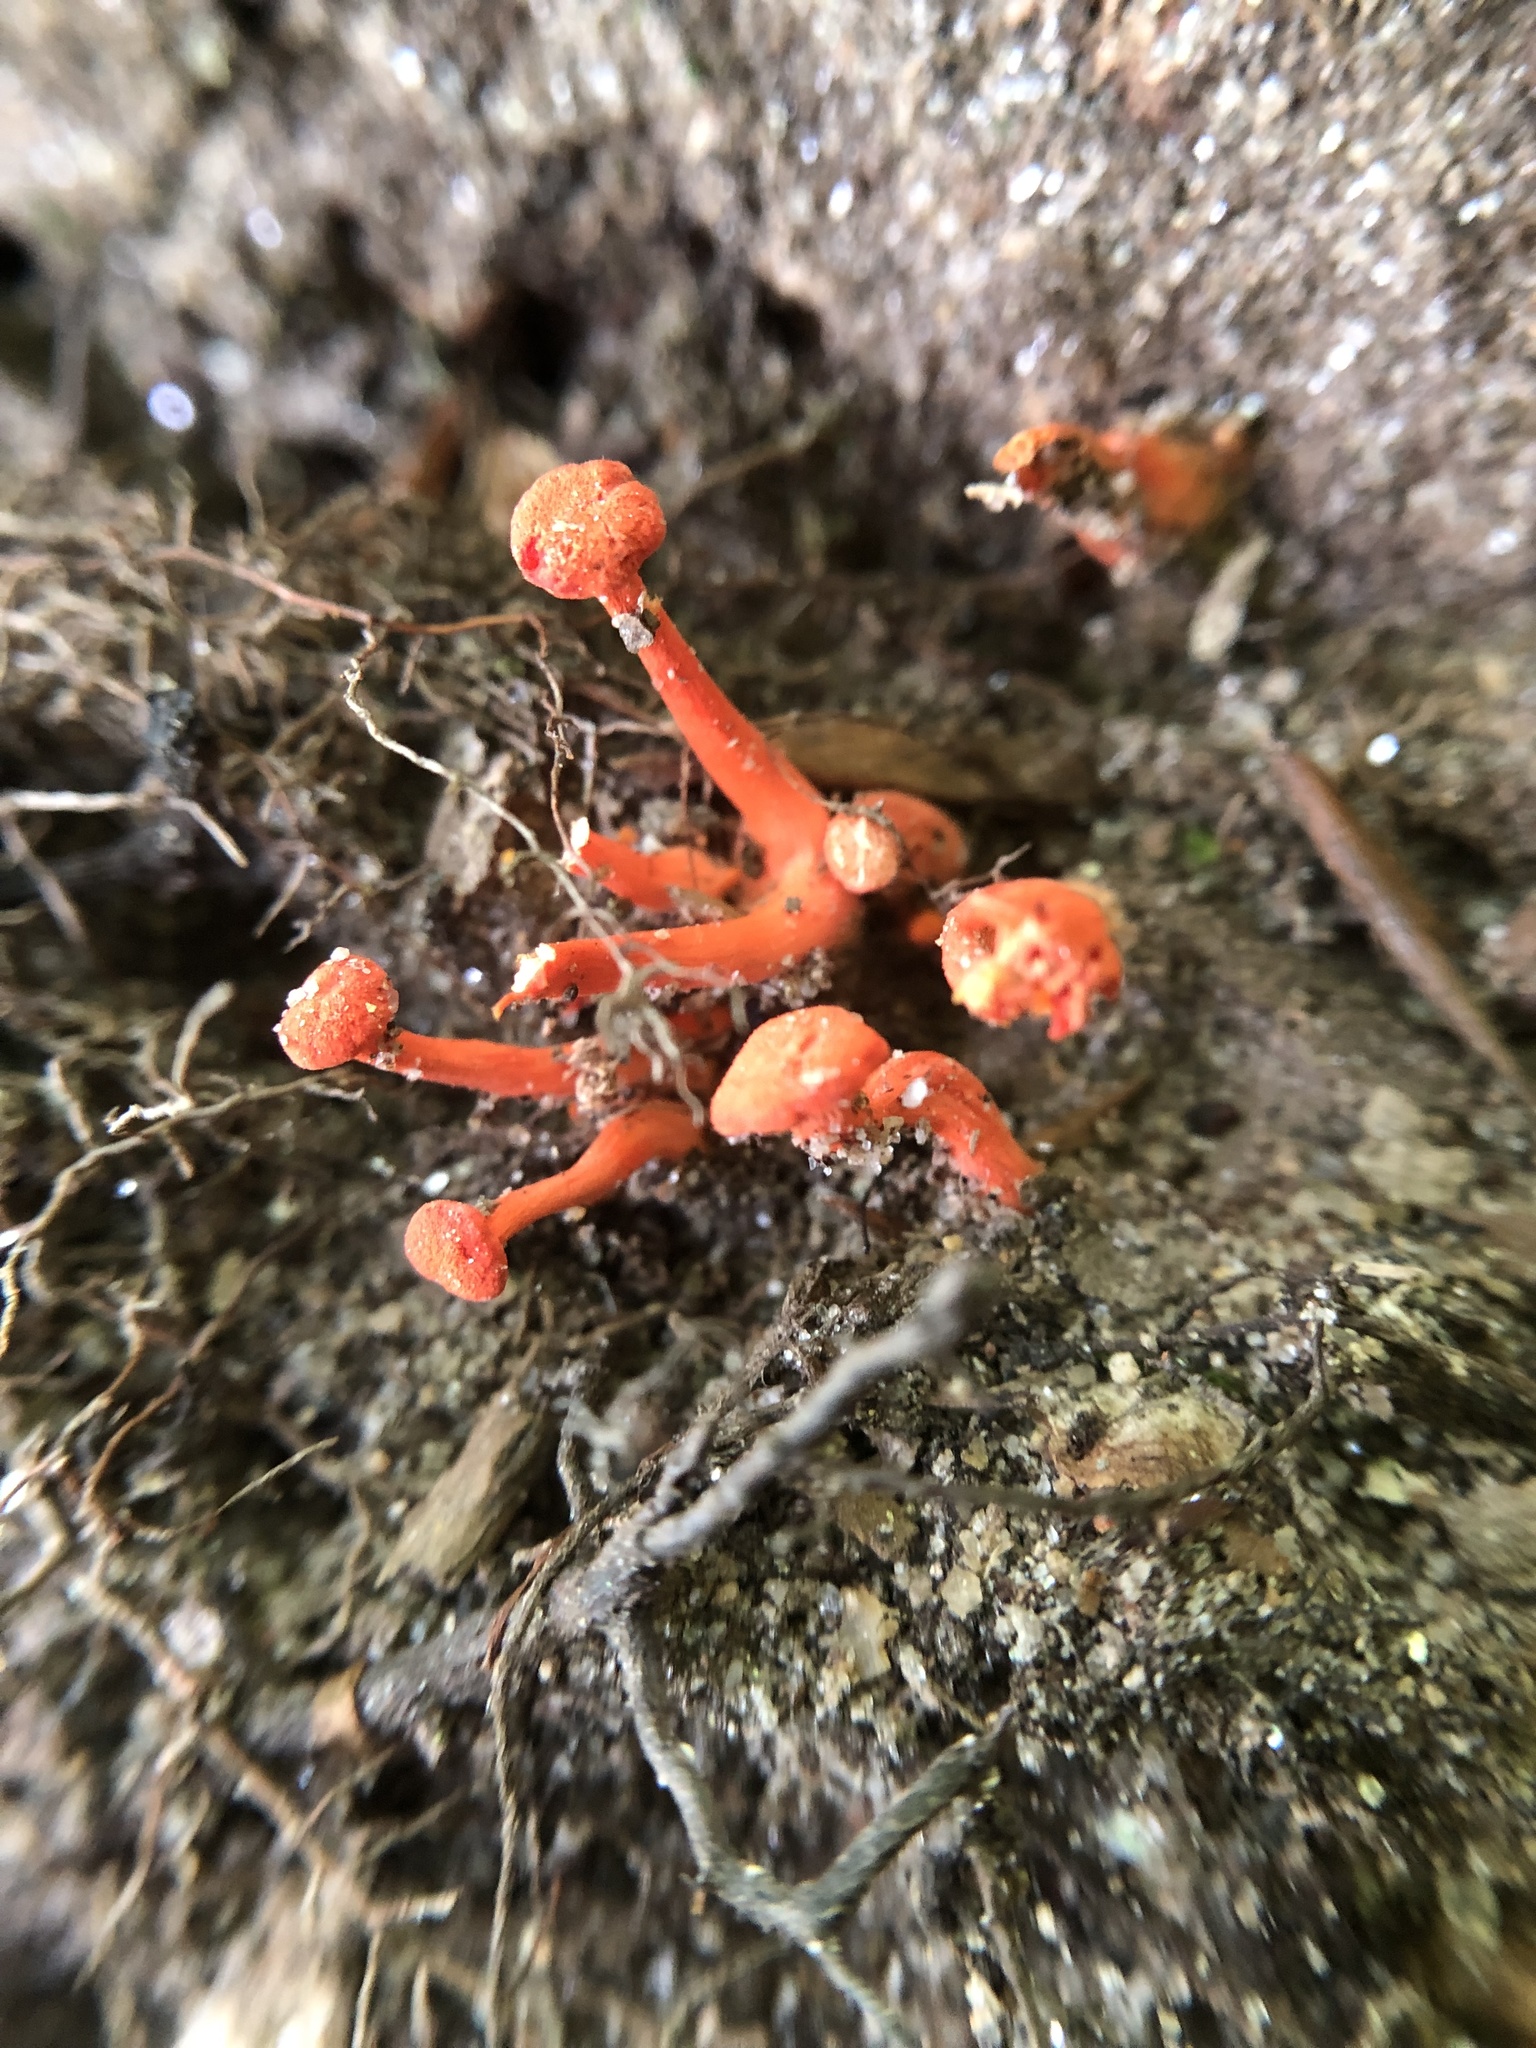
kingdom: Fungi
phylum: Basidiomycota
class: Agaricomycetes
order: Cantharellales
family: Hydnaceae
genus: Cantharellus
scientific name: Cantharellus cinnabarinus
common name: Cinnabar chanterelle
